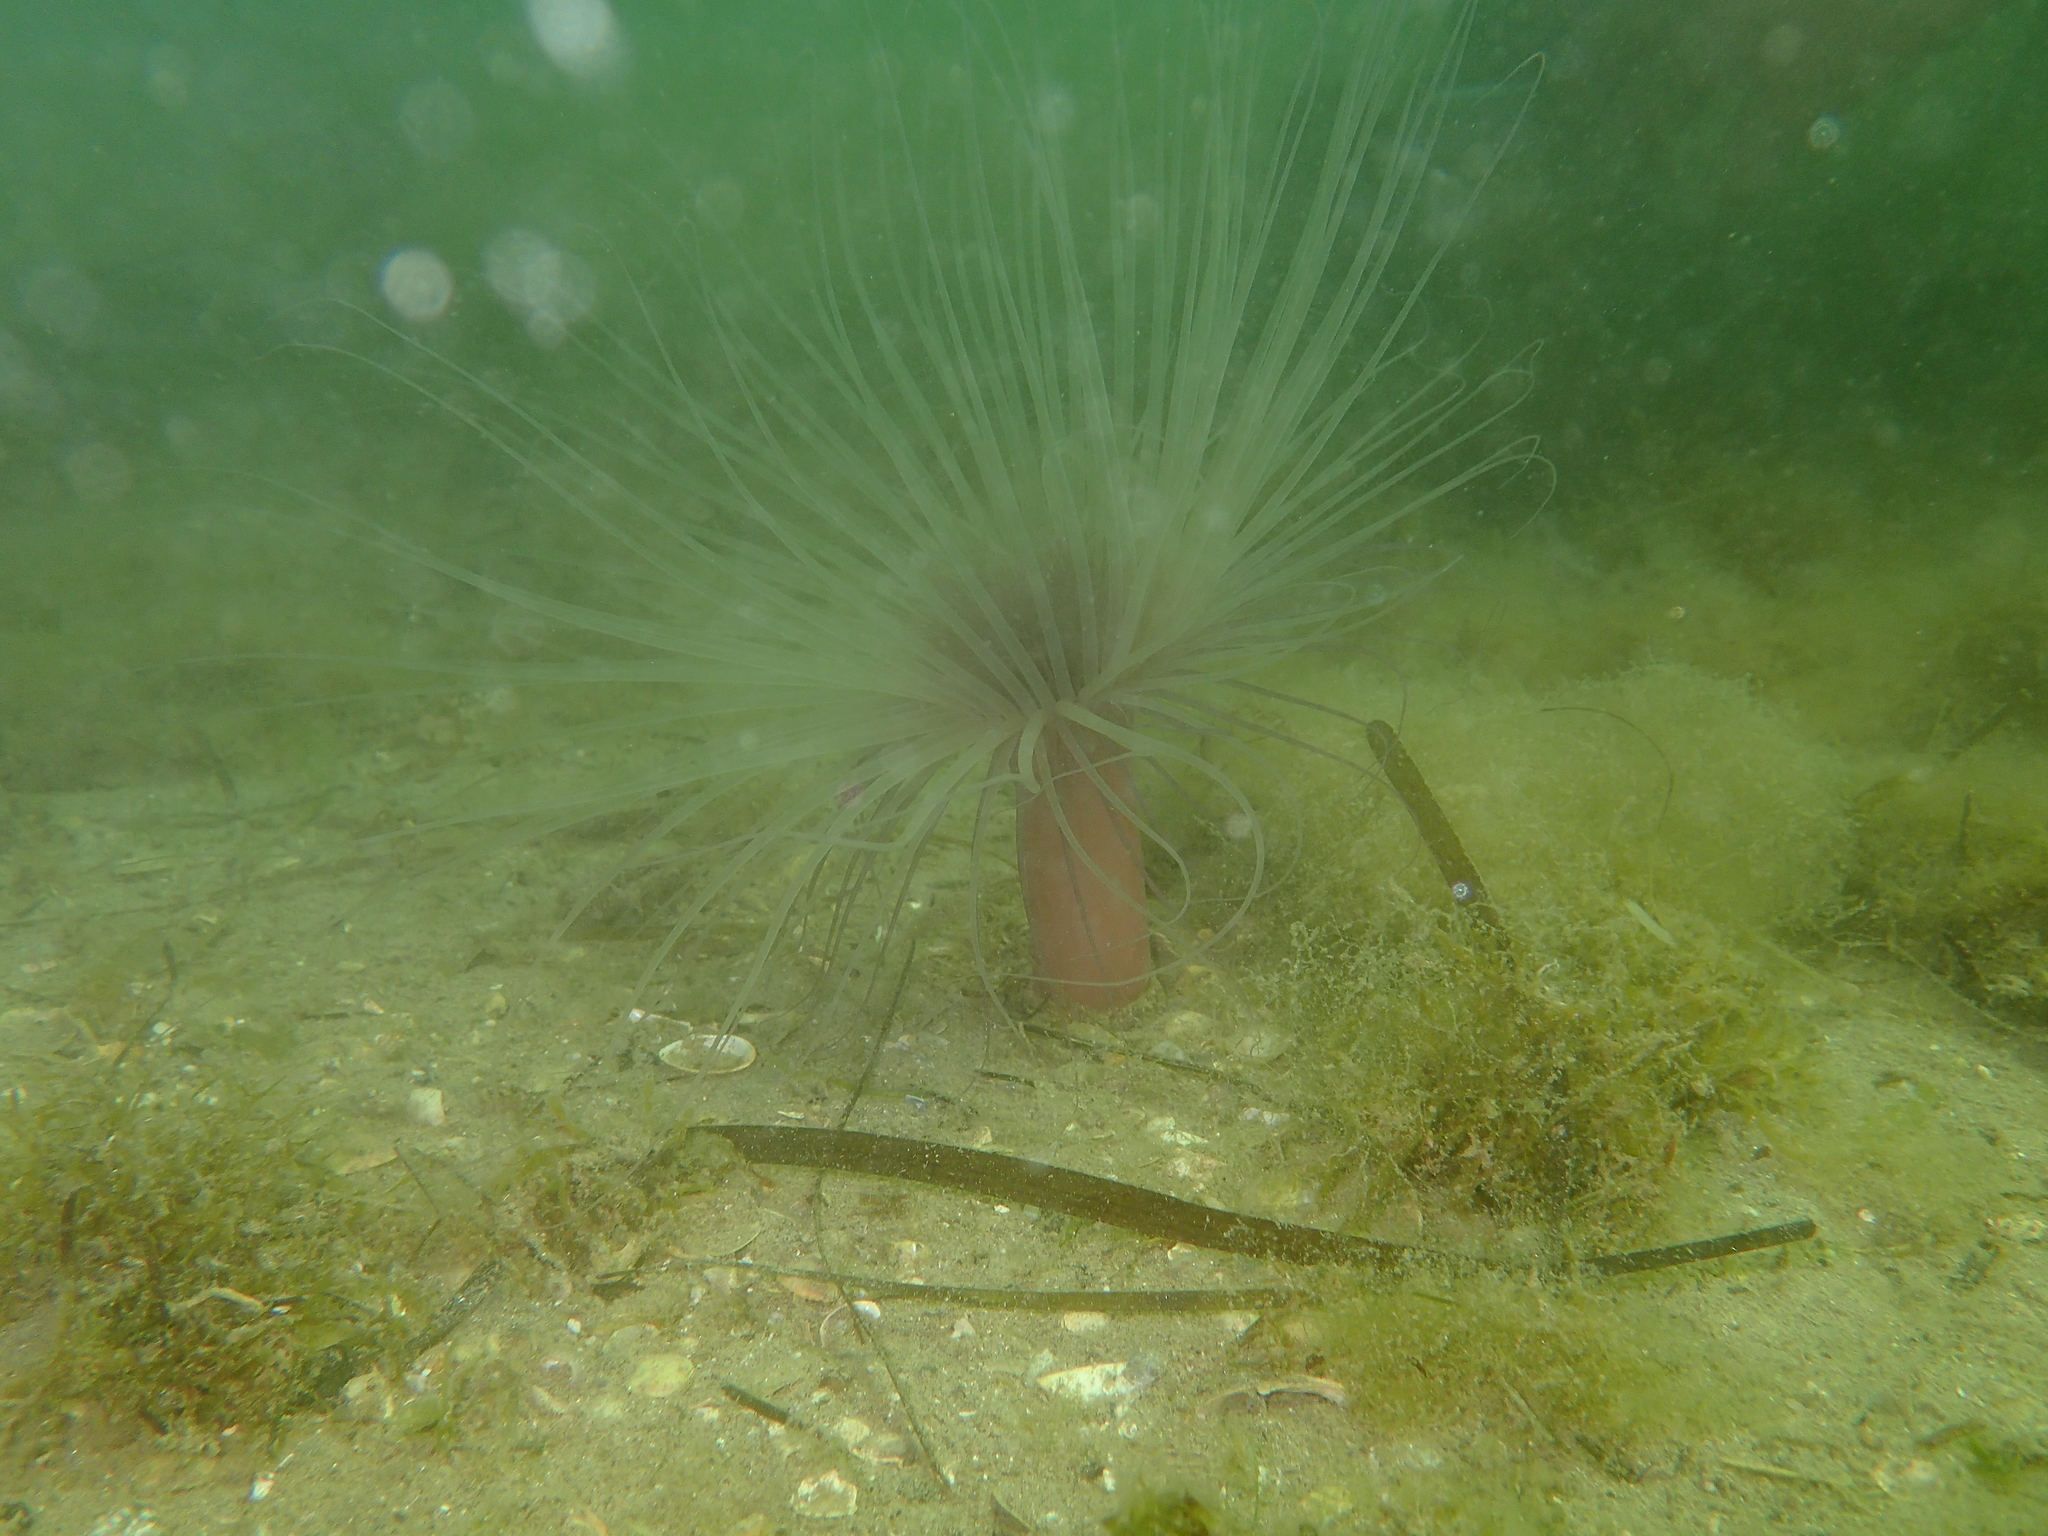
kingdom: Animalia
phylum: Cnidaria
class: Anthozoa
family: Cerianthidae
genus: Pachycerianthus
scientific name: Pachycerianthus solitarius
